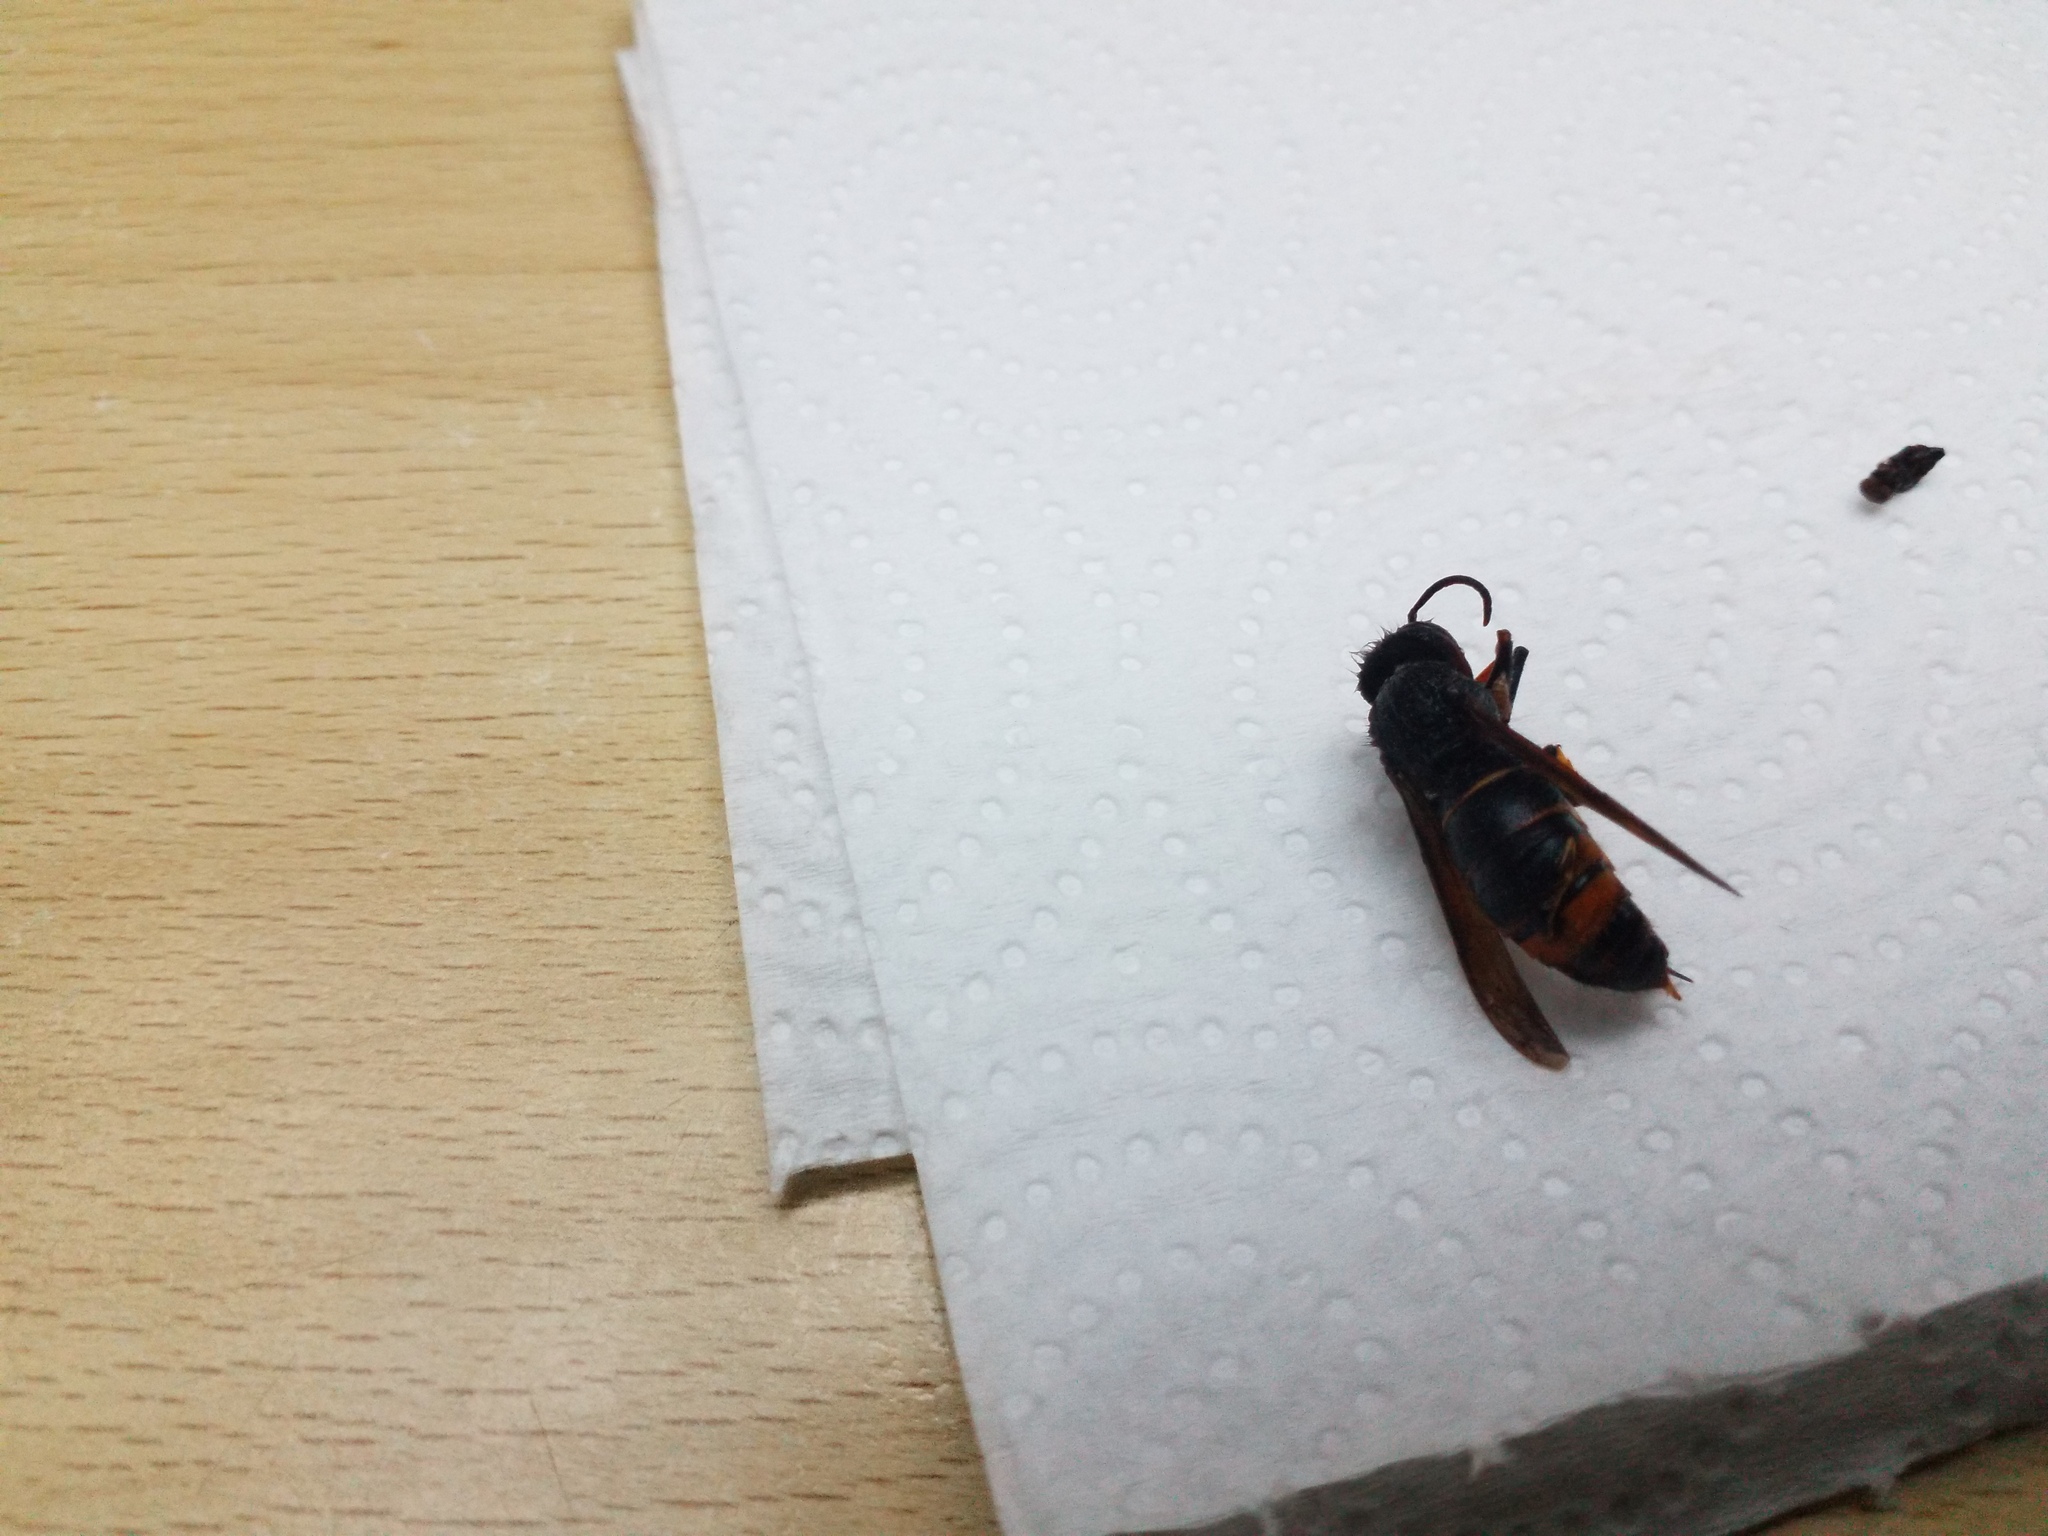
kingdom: Animalia
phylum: Arthropoda
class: Insecta
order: Hymenoptera
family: Vespidae
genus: Vespa
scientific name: Vespa velutina
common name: Asian hornet
